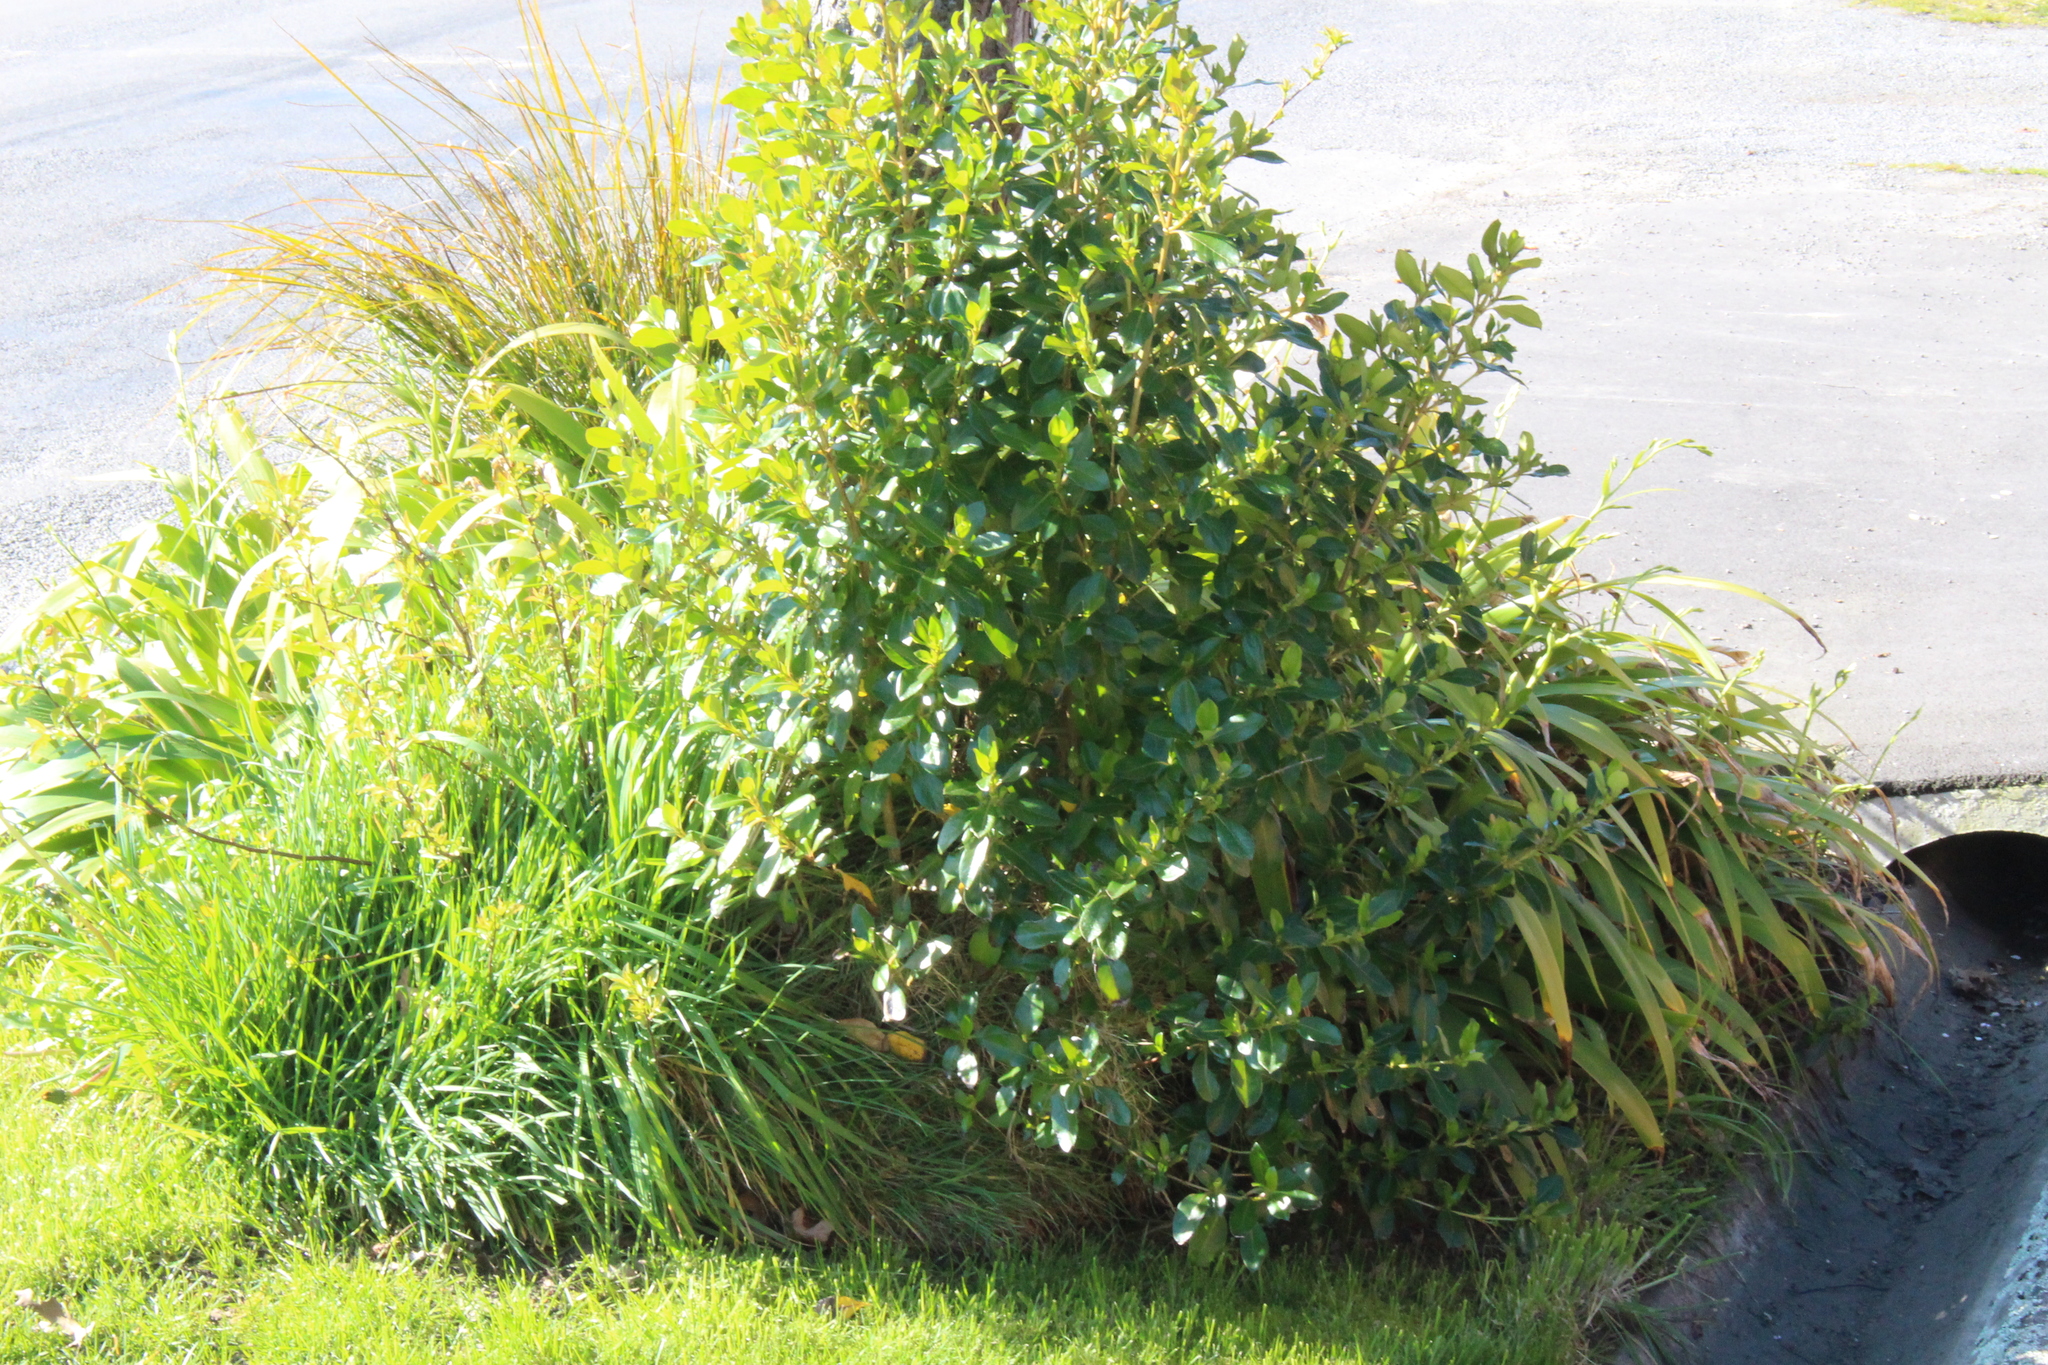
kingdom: Plantae
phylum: Tracheophyta
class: Magnoliopsida
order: Gentianales
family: Rubiaceae
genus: Coprosma
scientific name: Coprosma robusta
